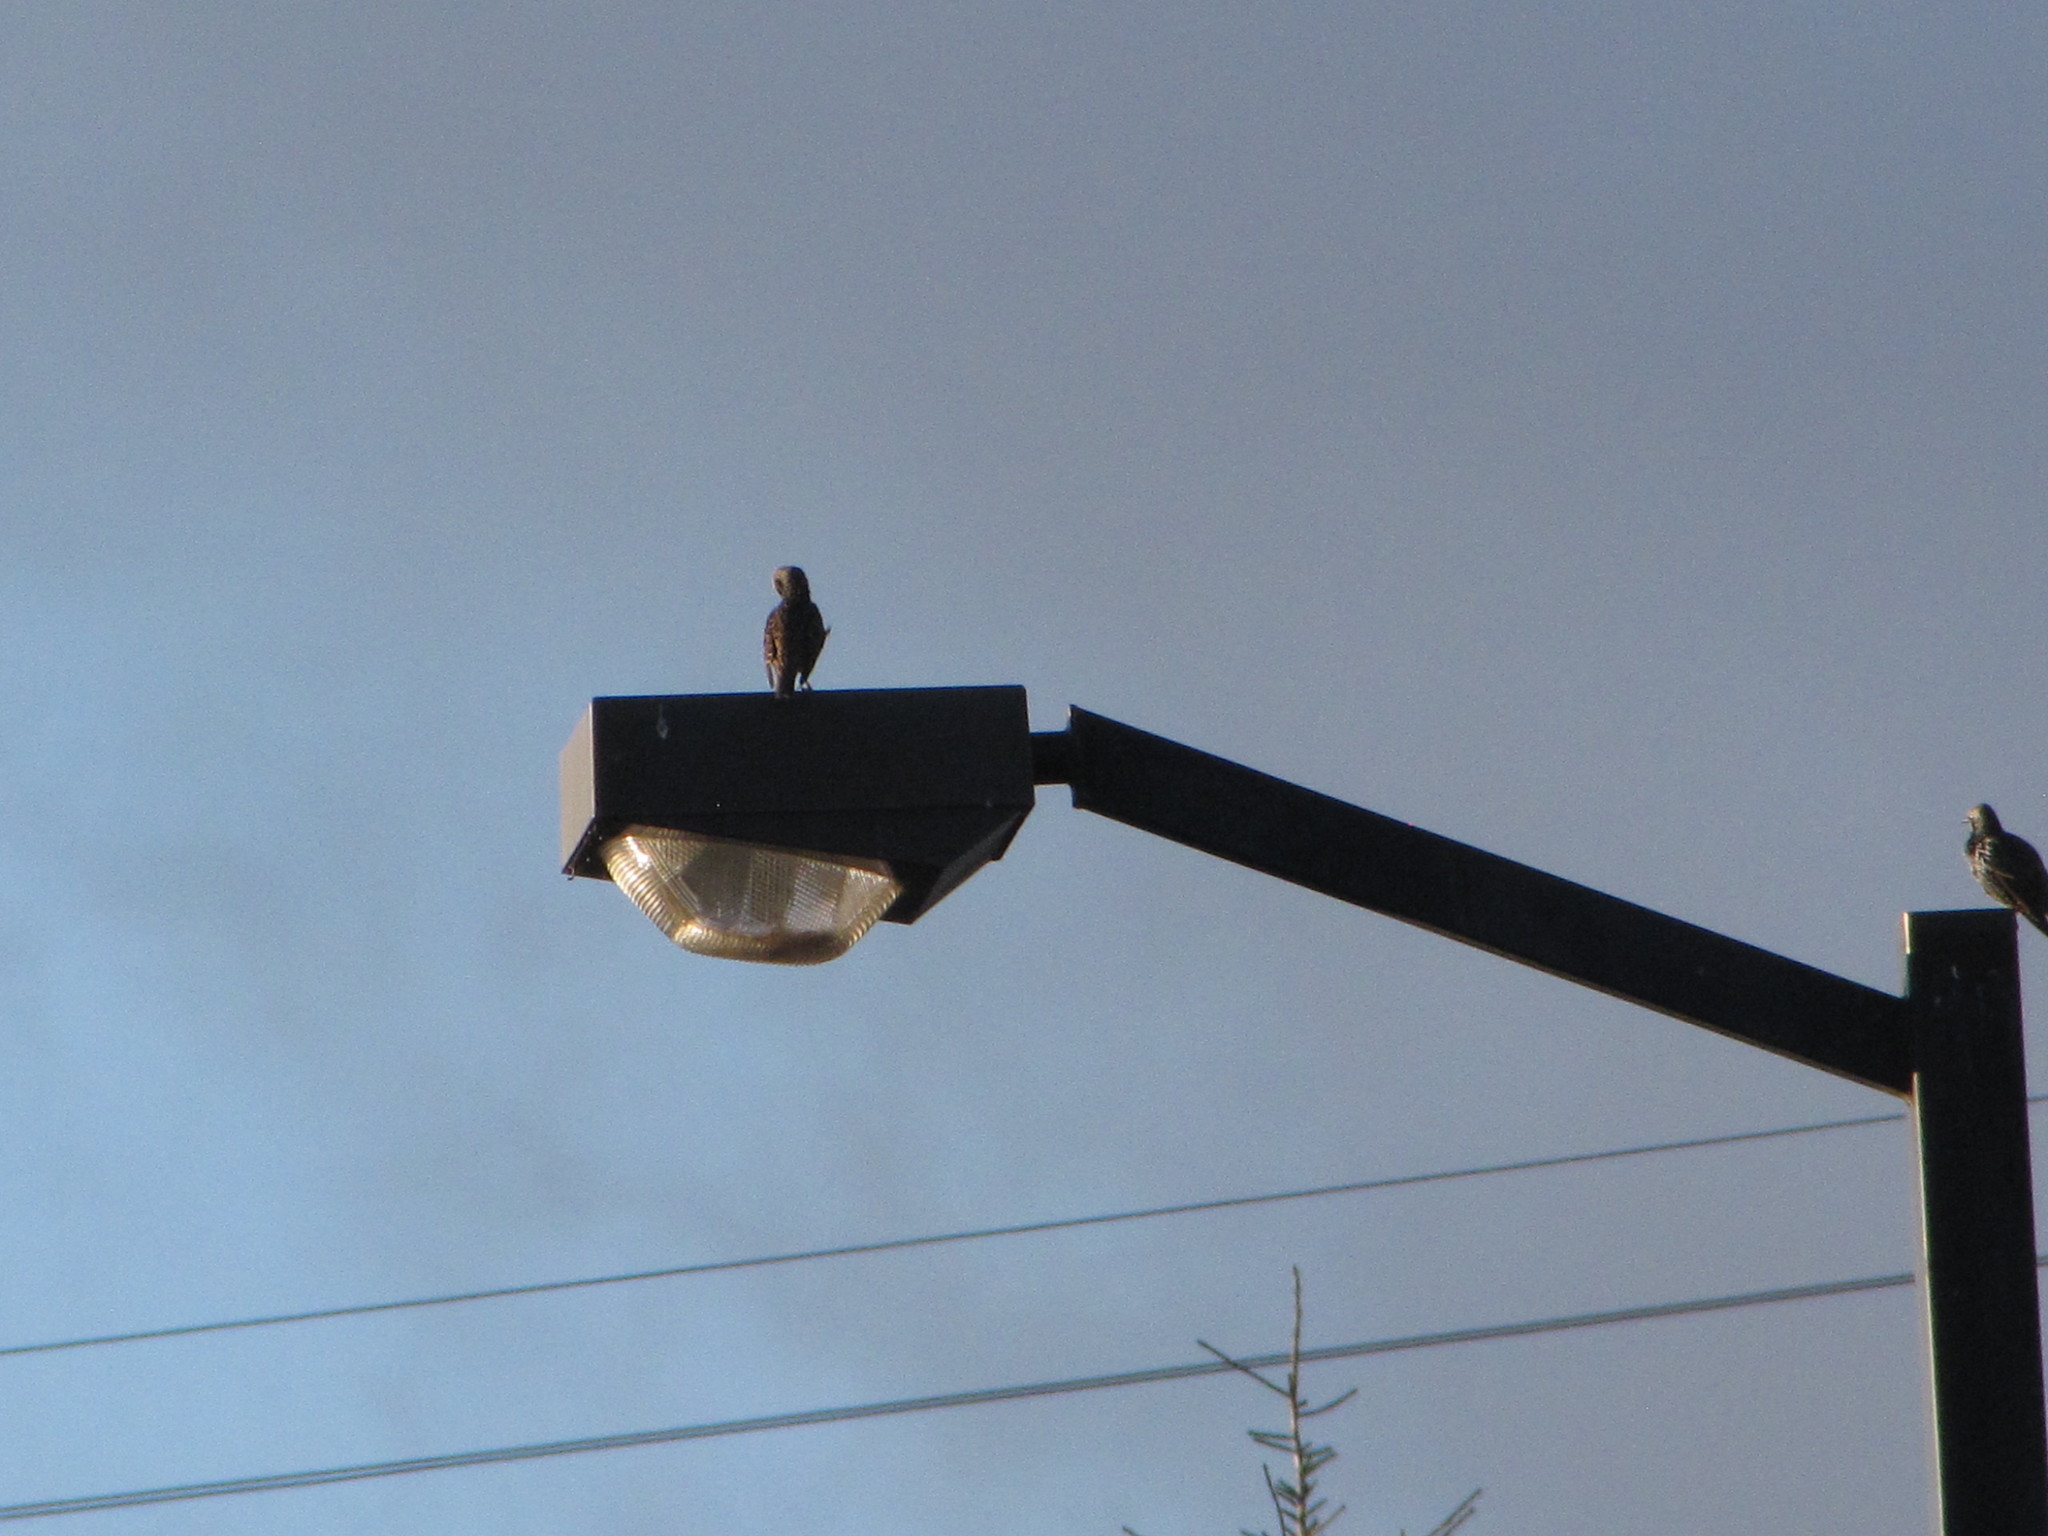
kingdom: Animalia
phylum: Chordata
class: Aves
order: Passeriformes
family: Sturnidae
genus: Sturnus
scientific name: Sturnus vulgaris
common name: Common starling
